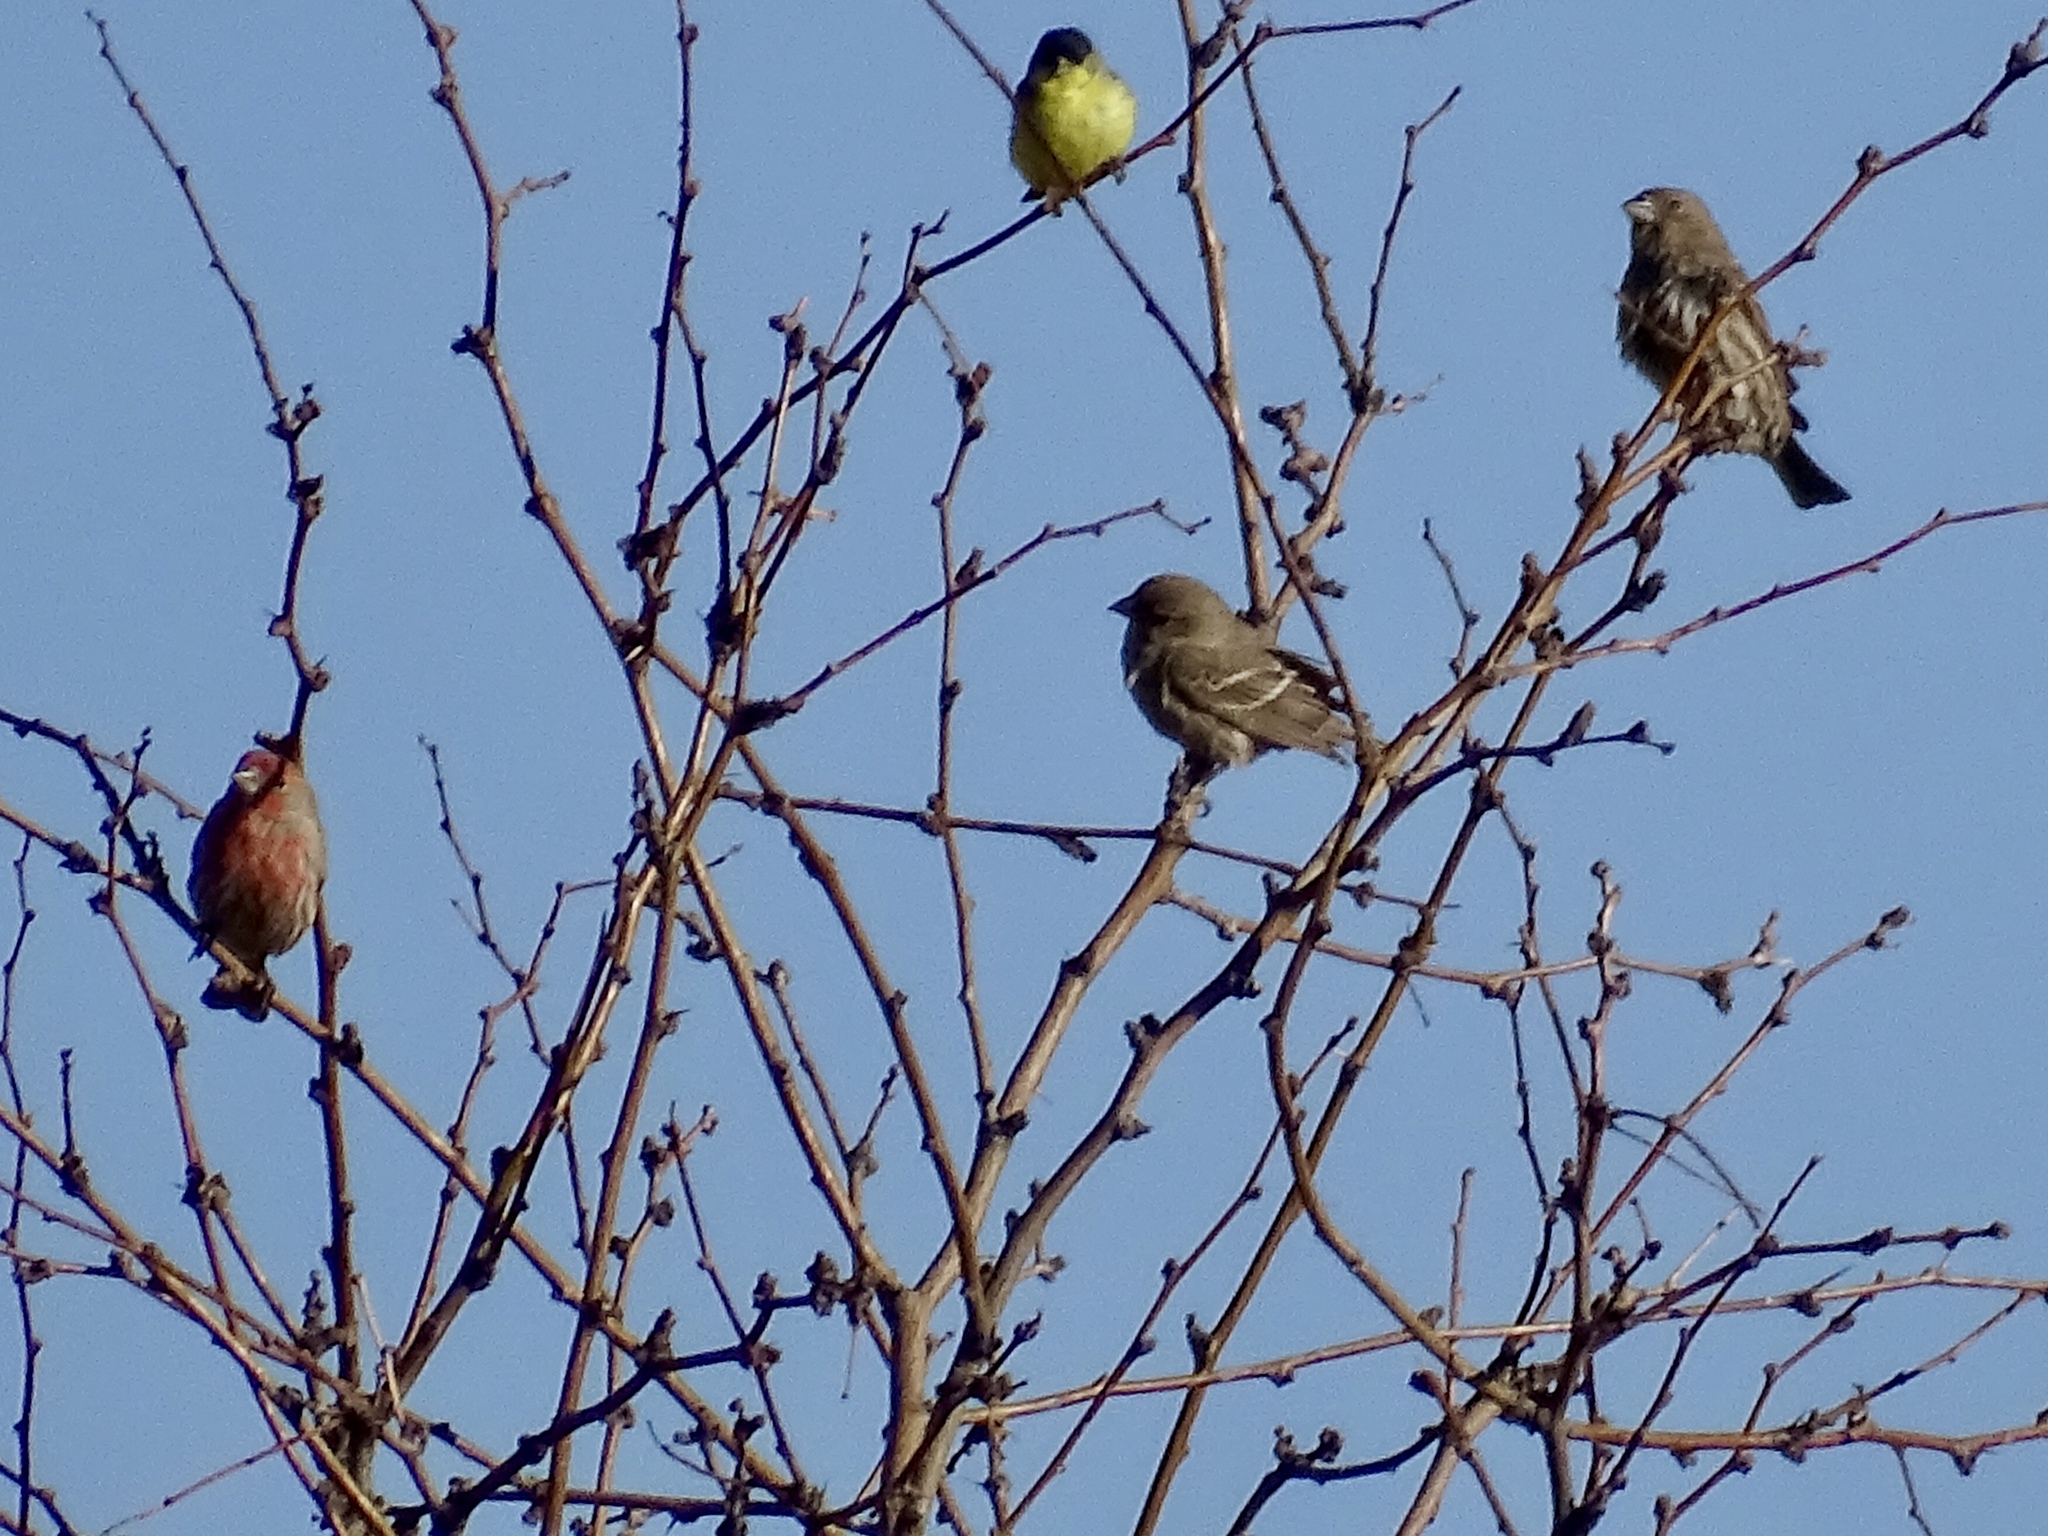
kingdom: Animalia
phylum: Chordata
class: Aves
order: Passeriformes
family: Fringillidae
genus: Haemorhous
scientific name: Haemorhous mexicanus
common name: House finch
